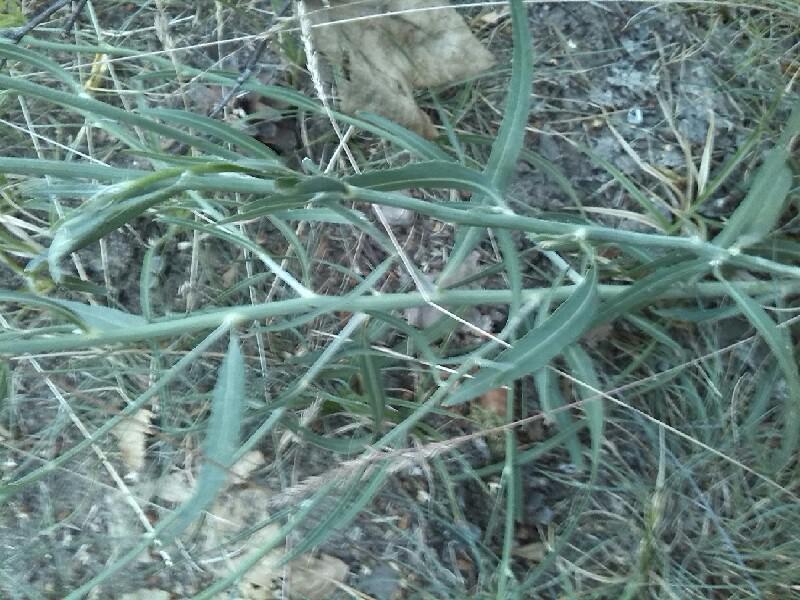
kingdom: Plantae
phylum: Tracheophyta
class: Magnoliopsida
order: Asterales
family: Asteraceae
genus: Chondrilla
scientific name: Chondrilla juncea
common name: Skeleton weed
